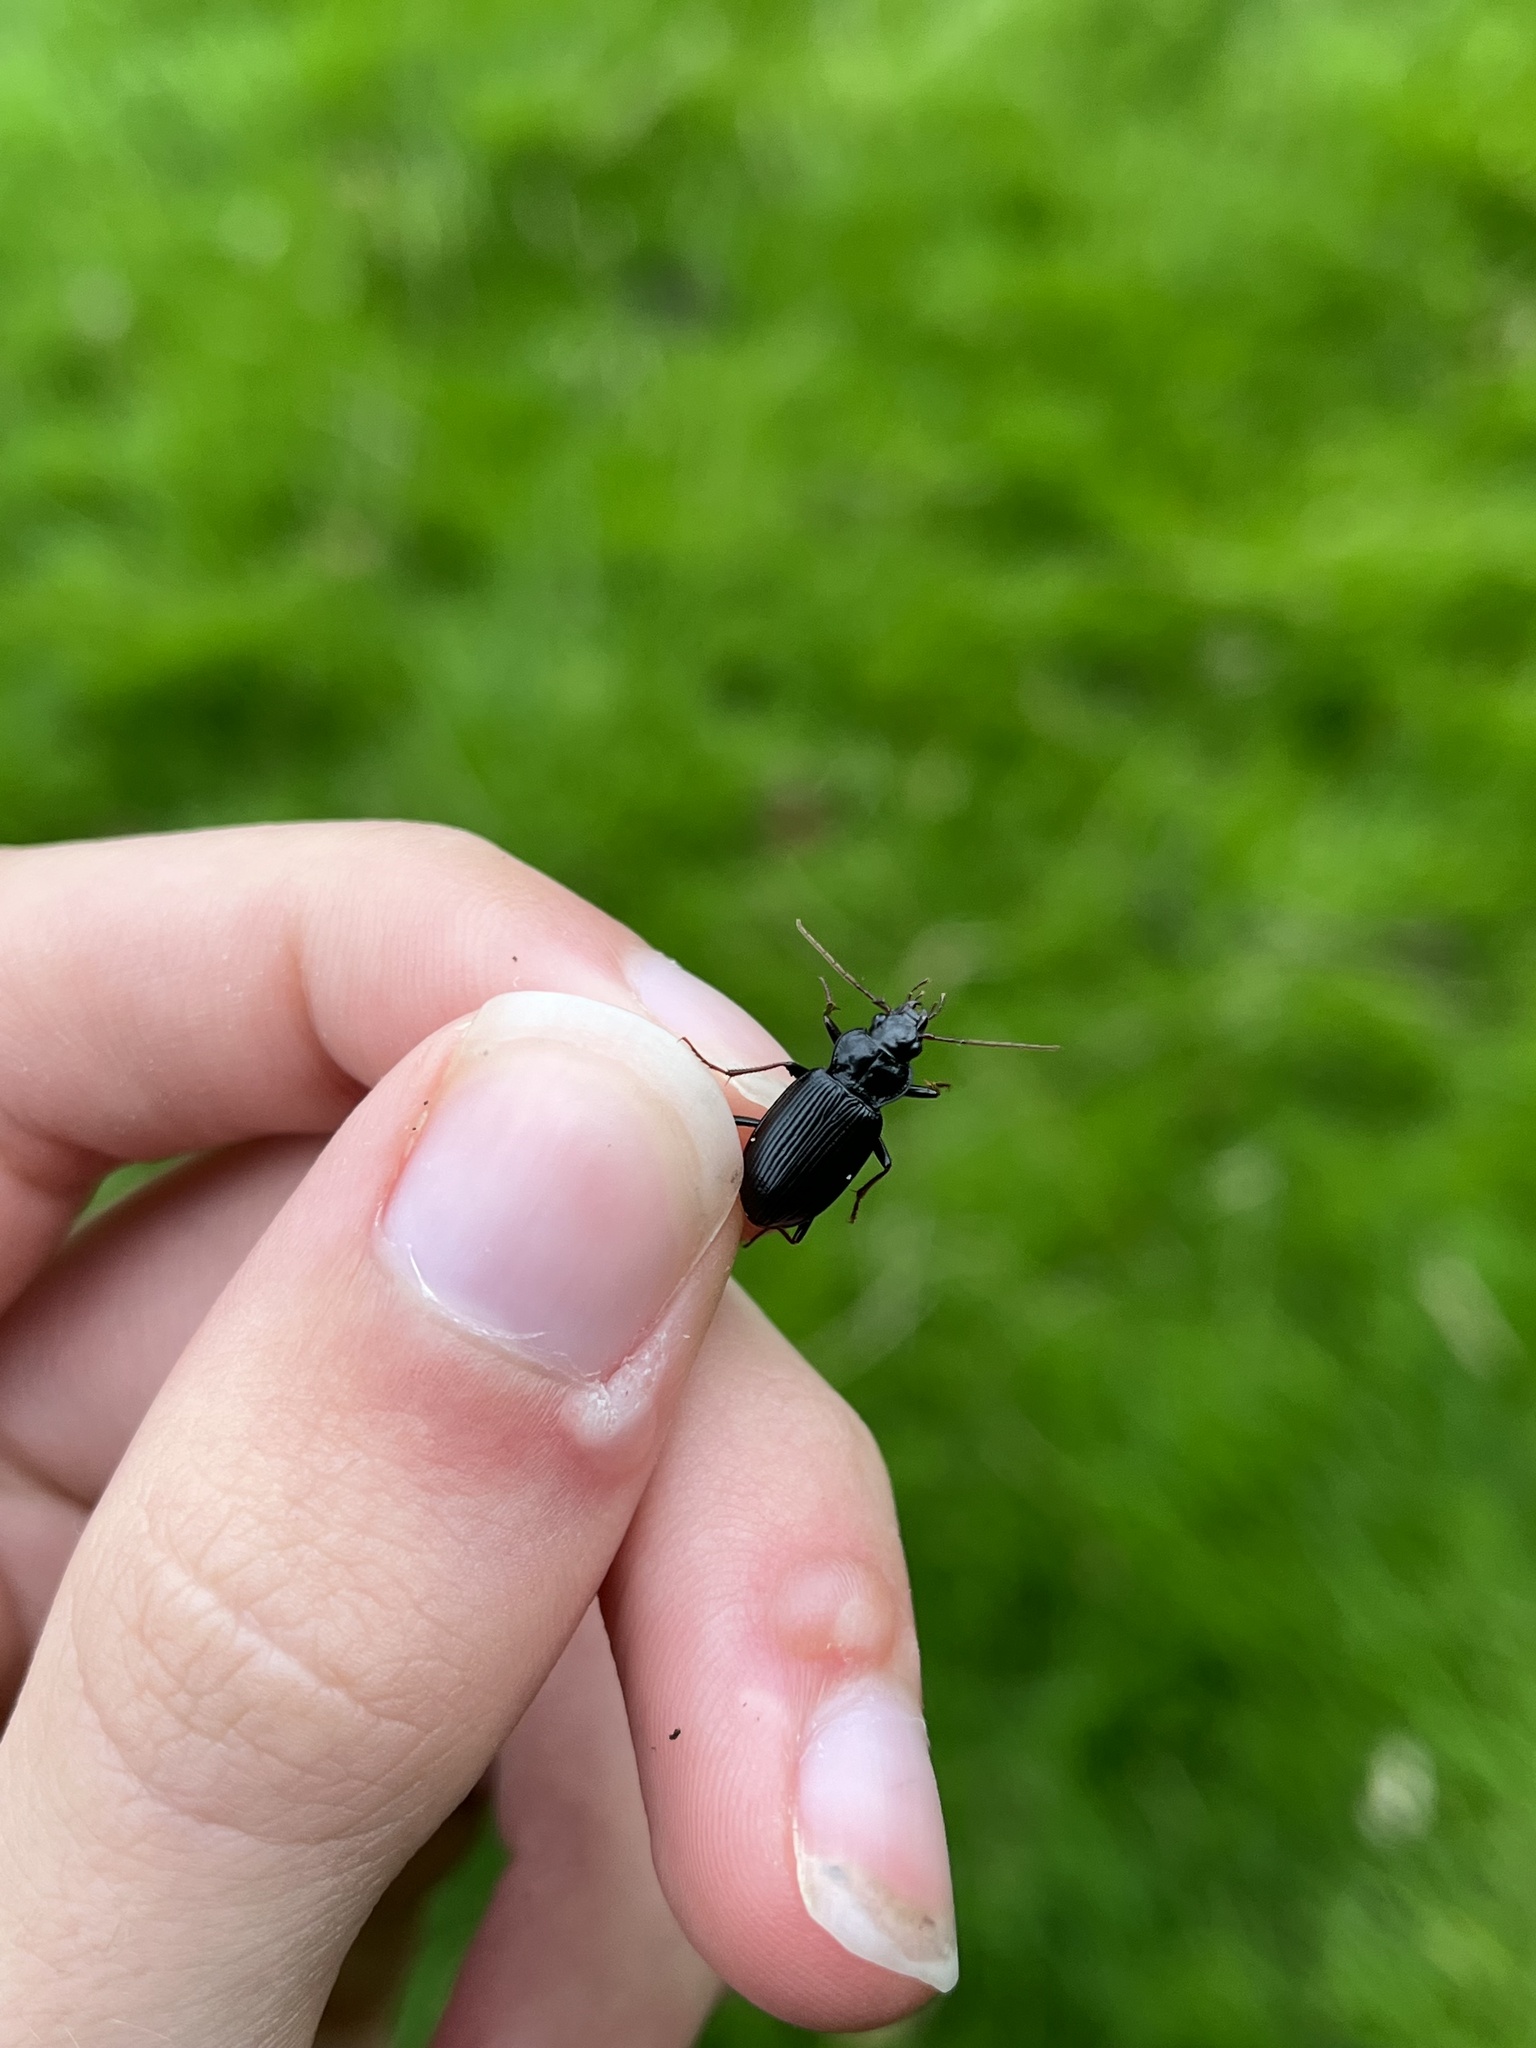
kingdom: Animalia
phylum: Arthropoda
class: Insecta
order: Coleoptera
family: Carabidae
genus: Nebria
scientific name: Nebria brevicollis
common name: Short-necked gazelle beetle
